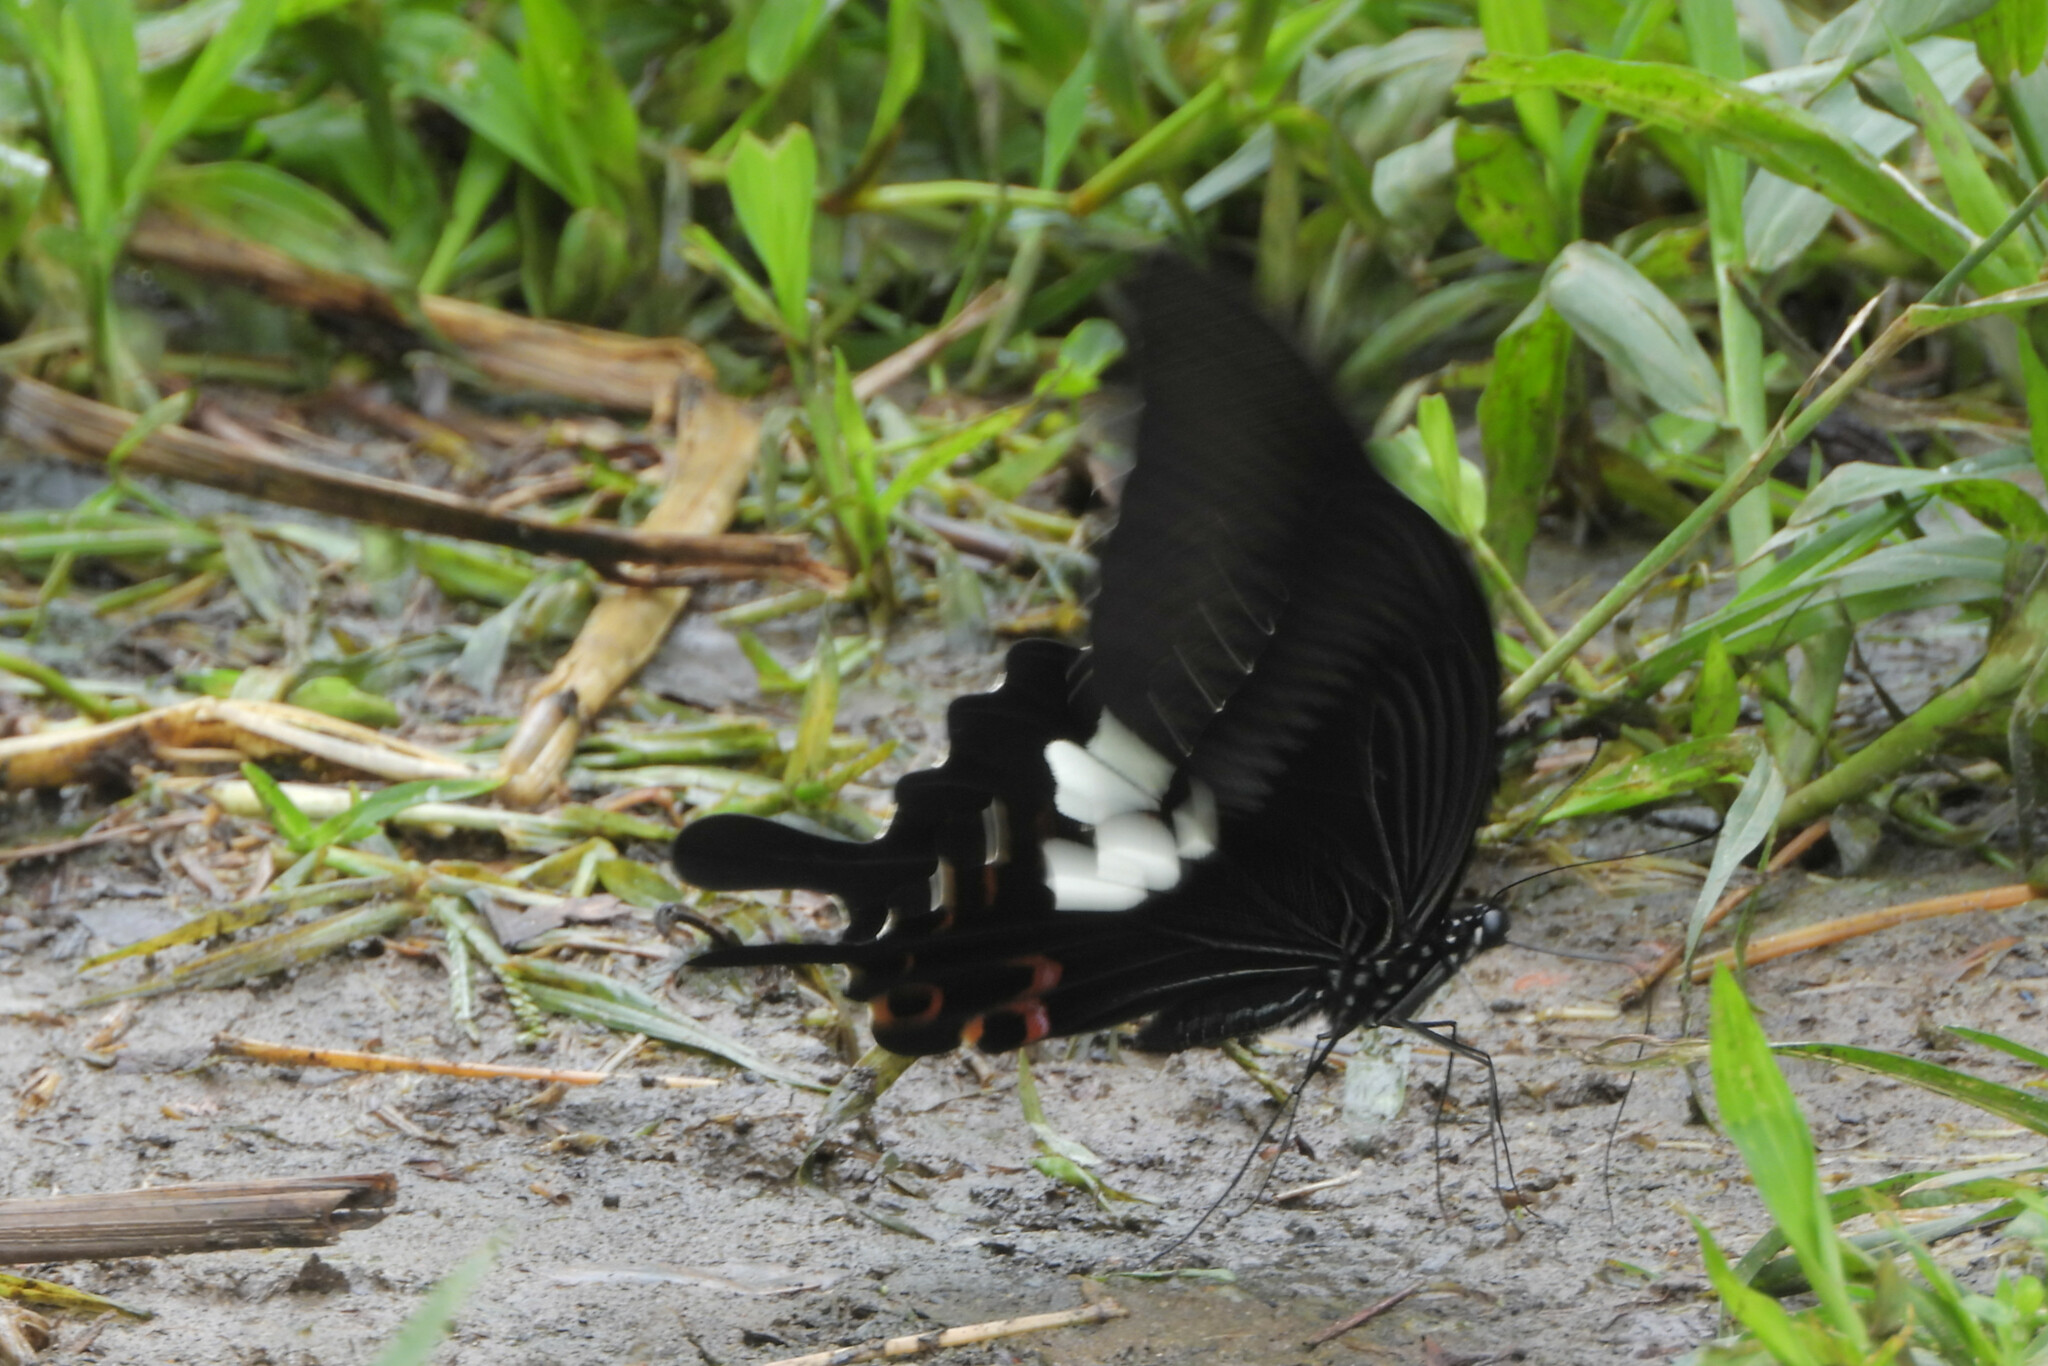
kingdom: Animalia
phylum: Arthropoda
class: Insecta
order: Lepidoptera
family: Papilionidae
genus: Papilio
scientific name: Papilio helenus
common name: Red helen
